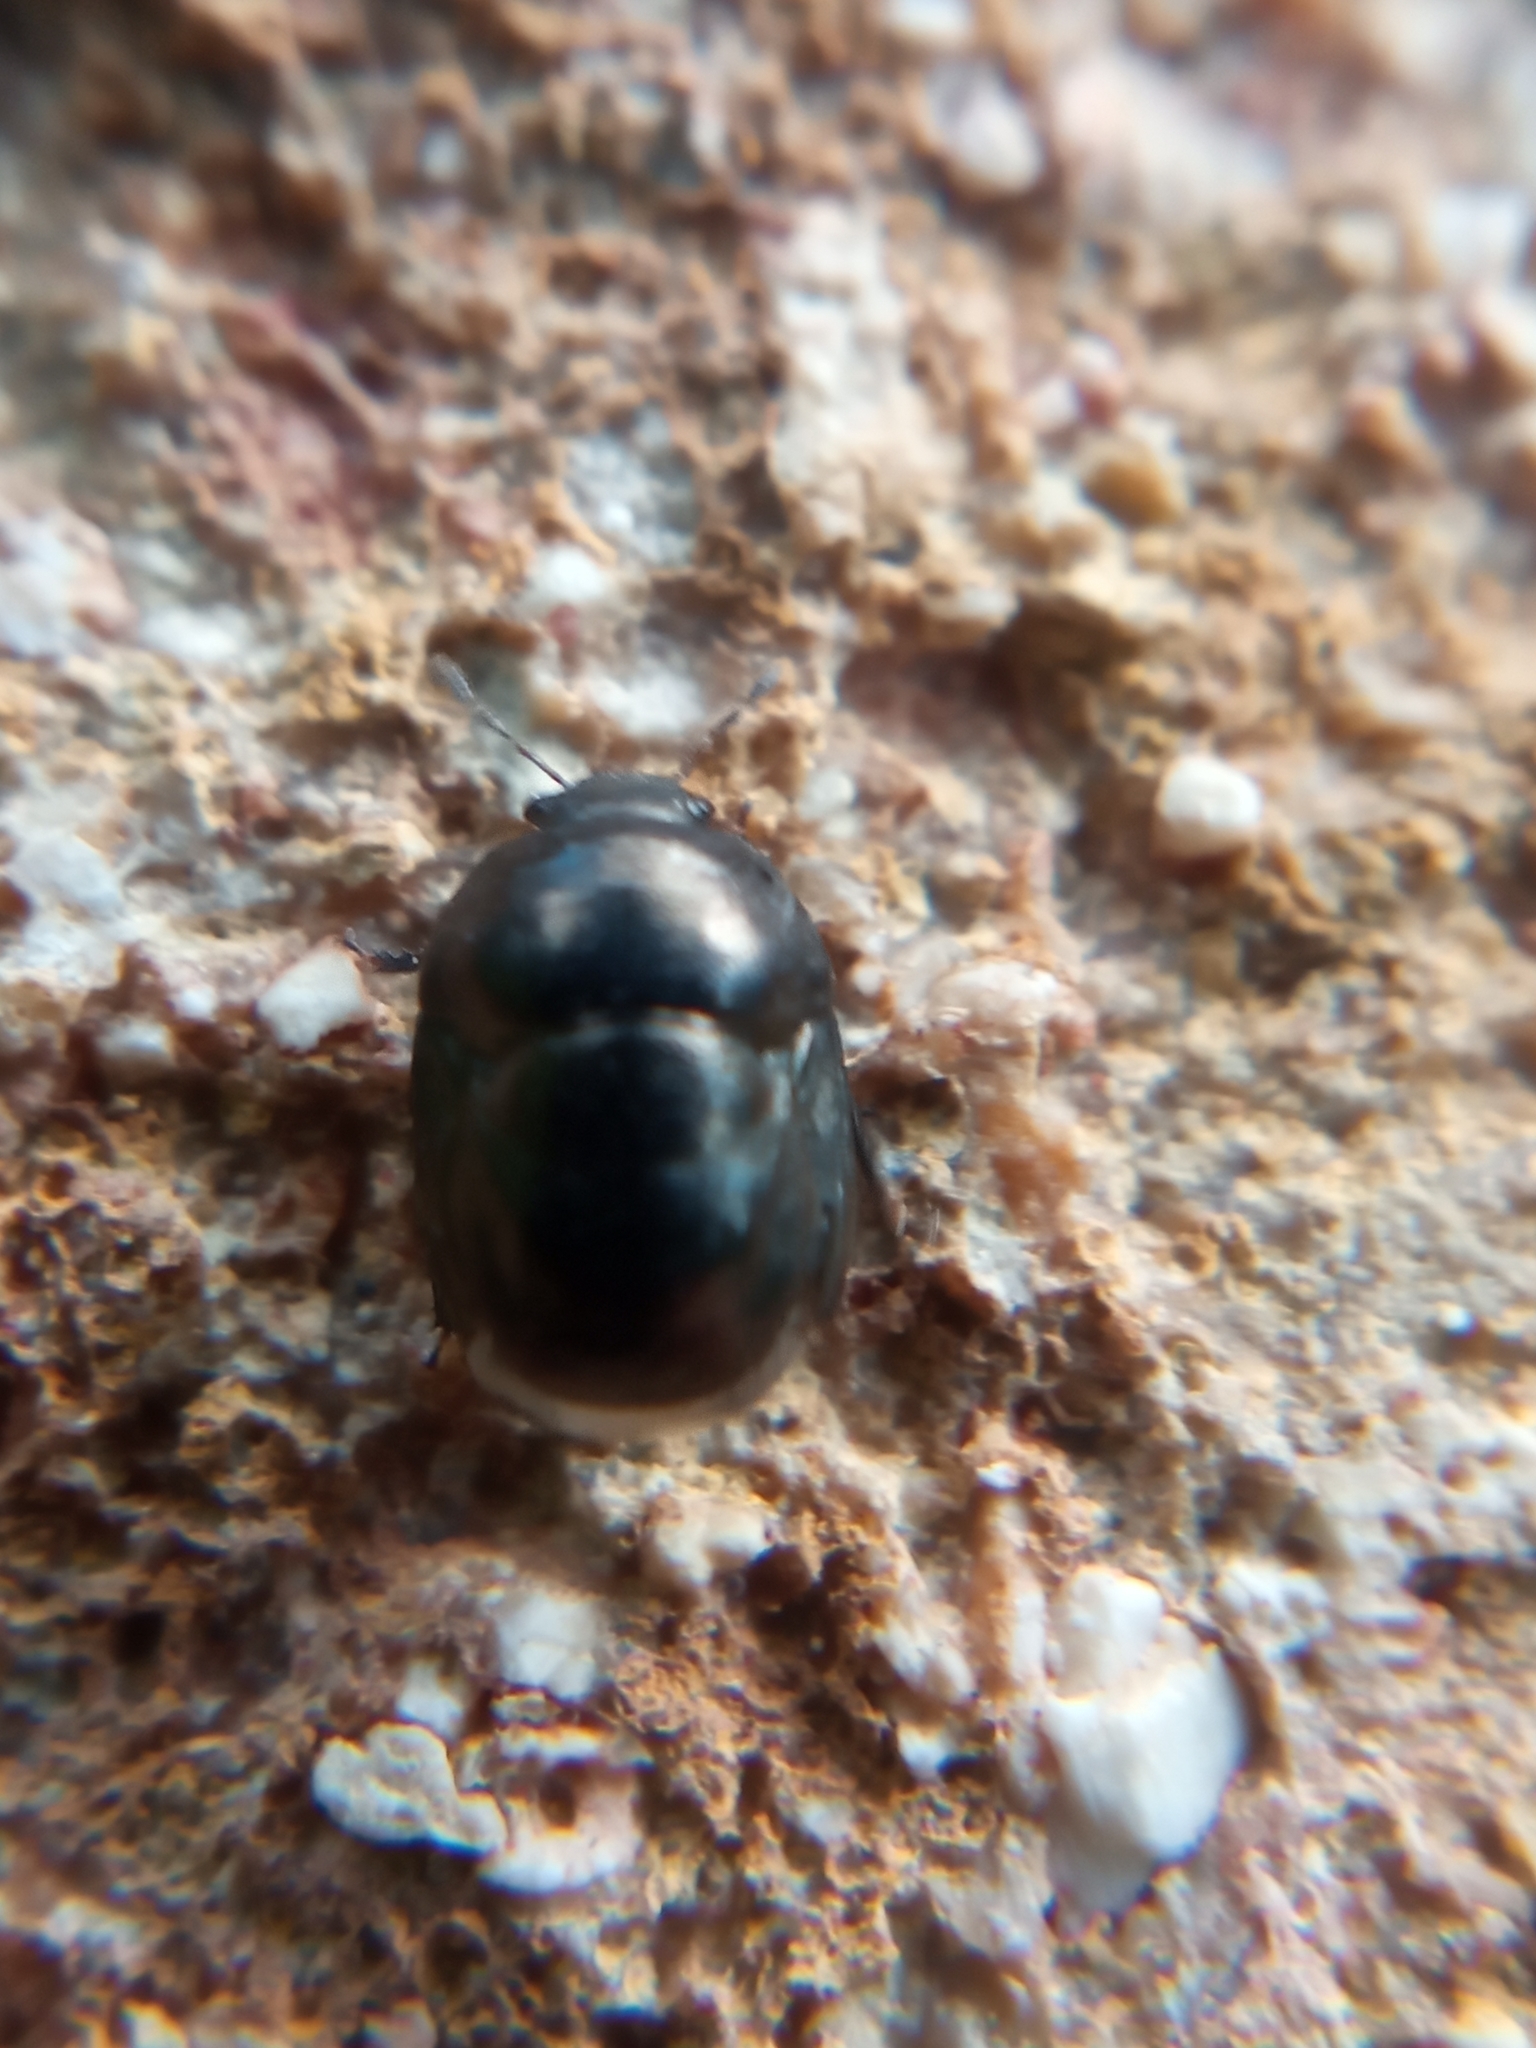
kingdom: Animalia
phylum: Arthropoda
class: Insecta
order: Hemiptera
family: Thyreocoridae
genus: Thyreocoris
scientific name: Thyreocoris scarabaeoides
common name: Negro bug
